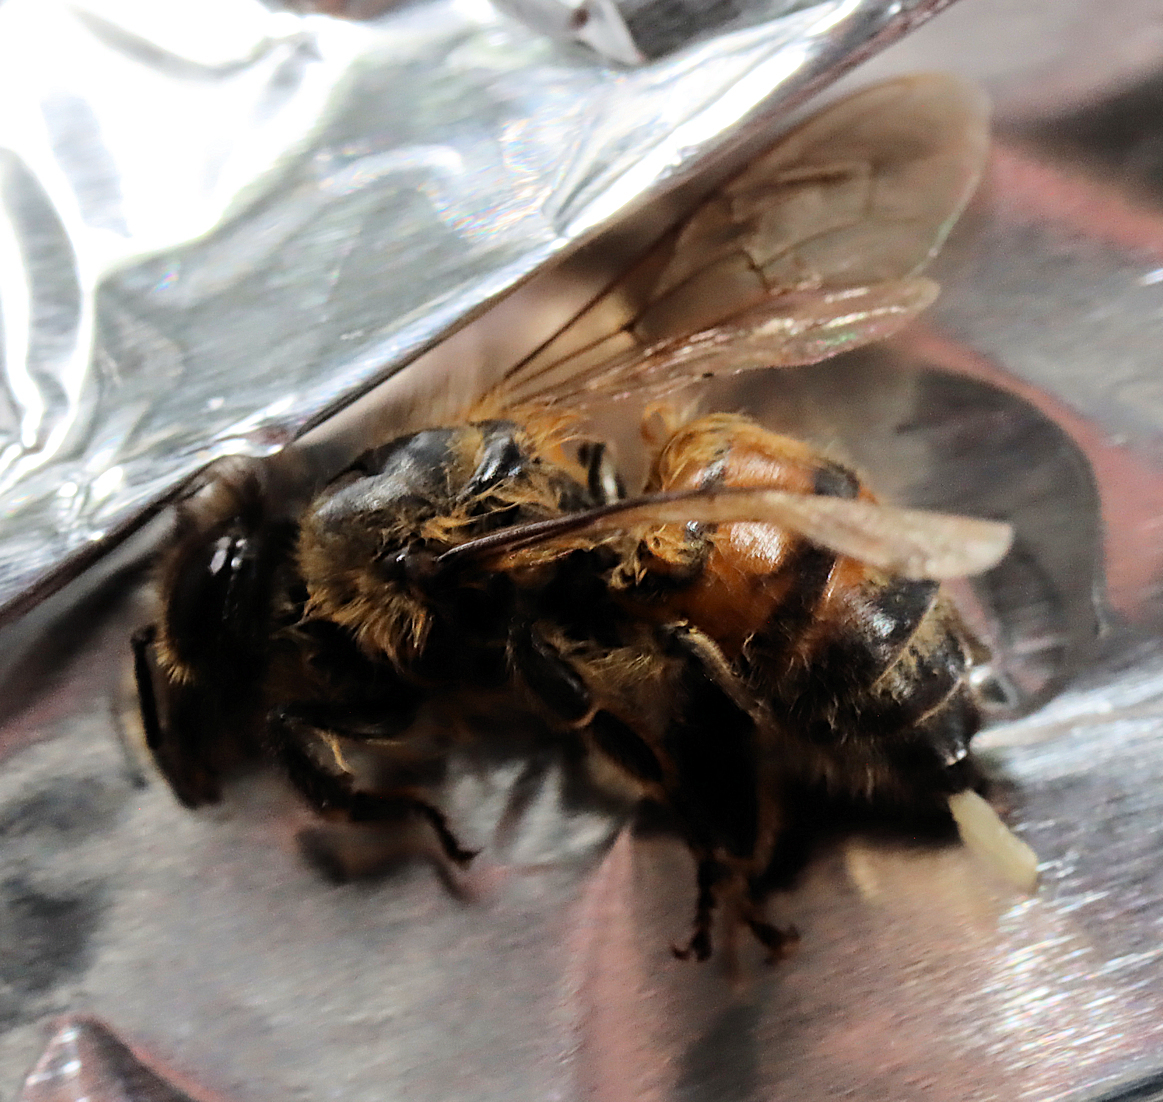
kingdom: Animalia
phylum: Arthropoda
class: Insecta
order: Hymenoptera
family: Apidae
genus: Apis
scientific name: Apis mellifera
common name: Honey bee
